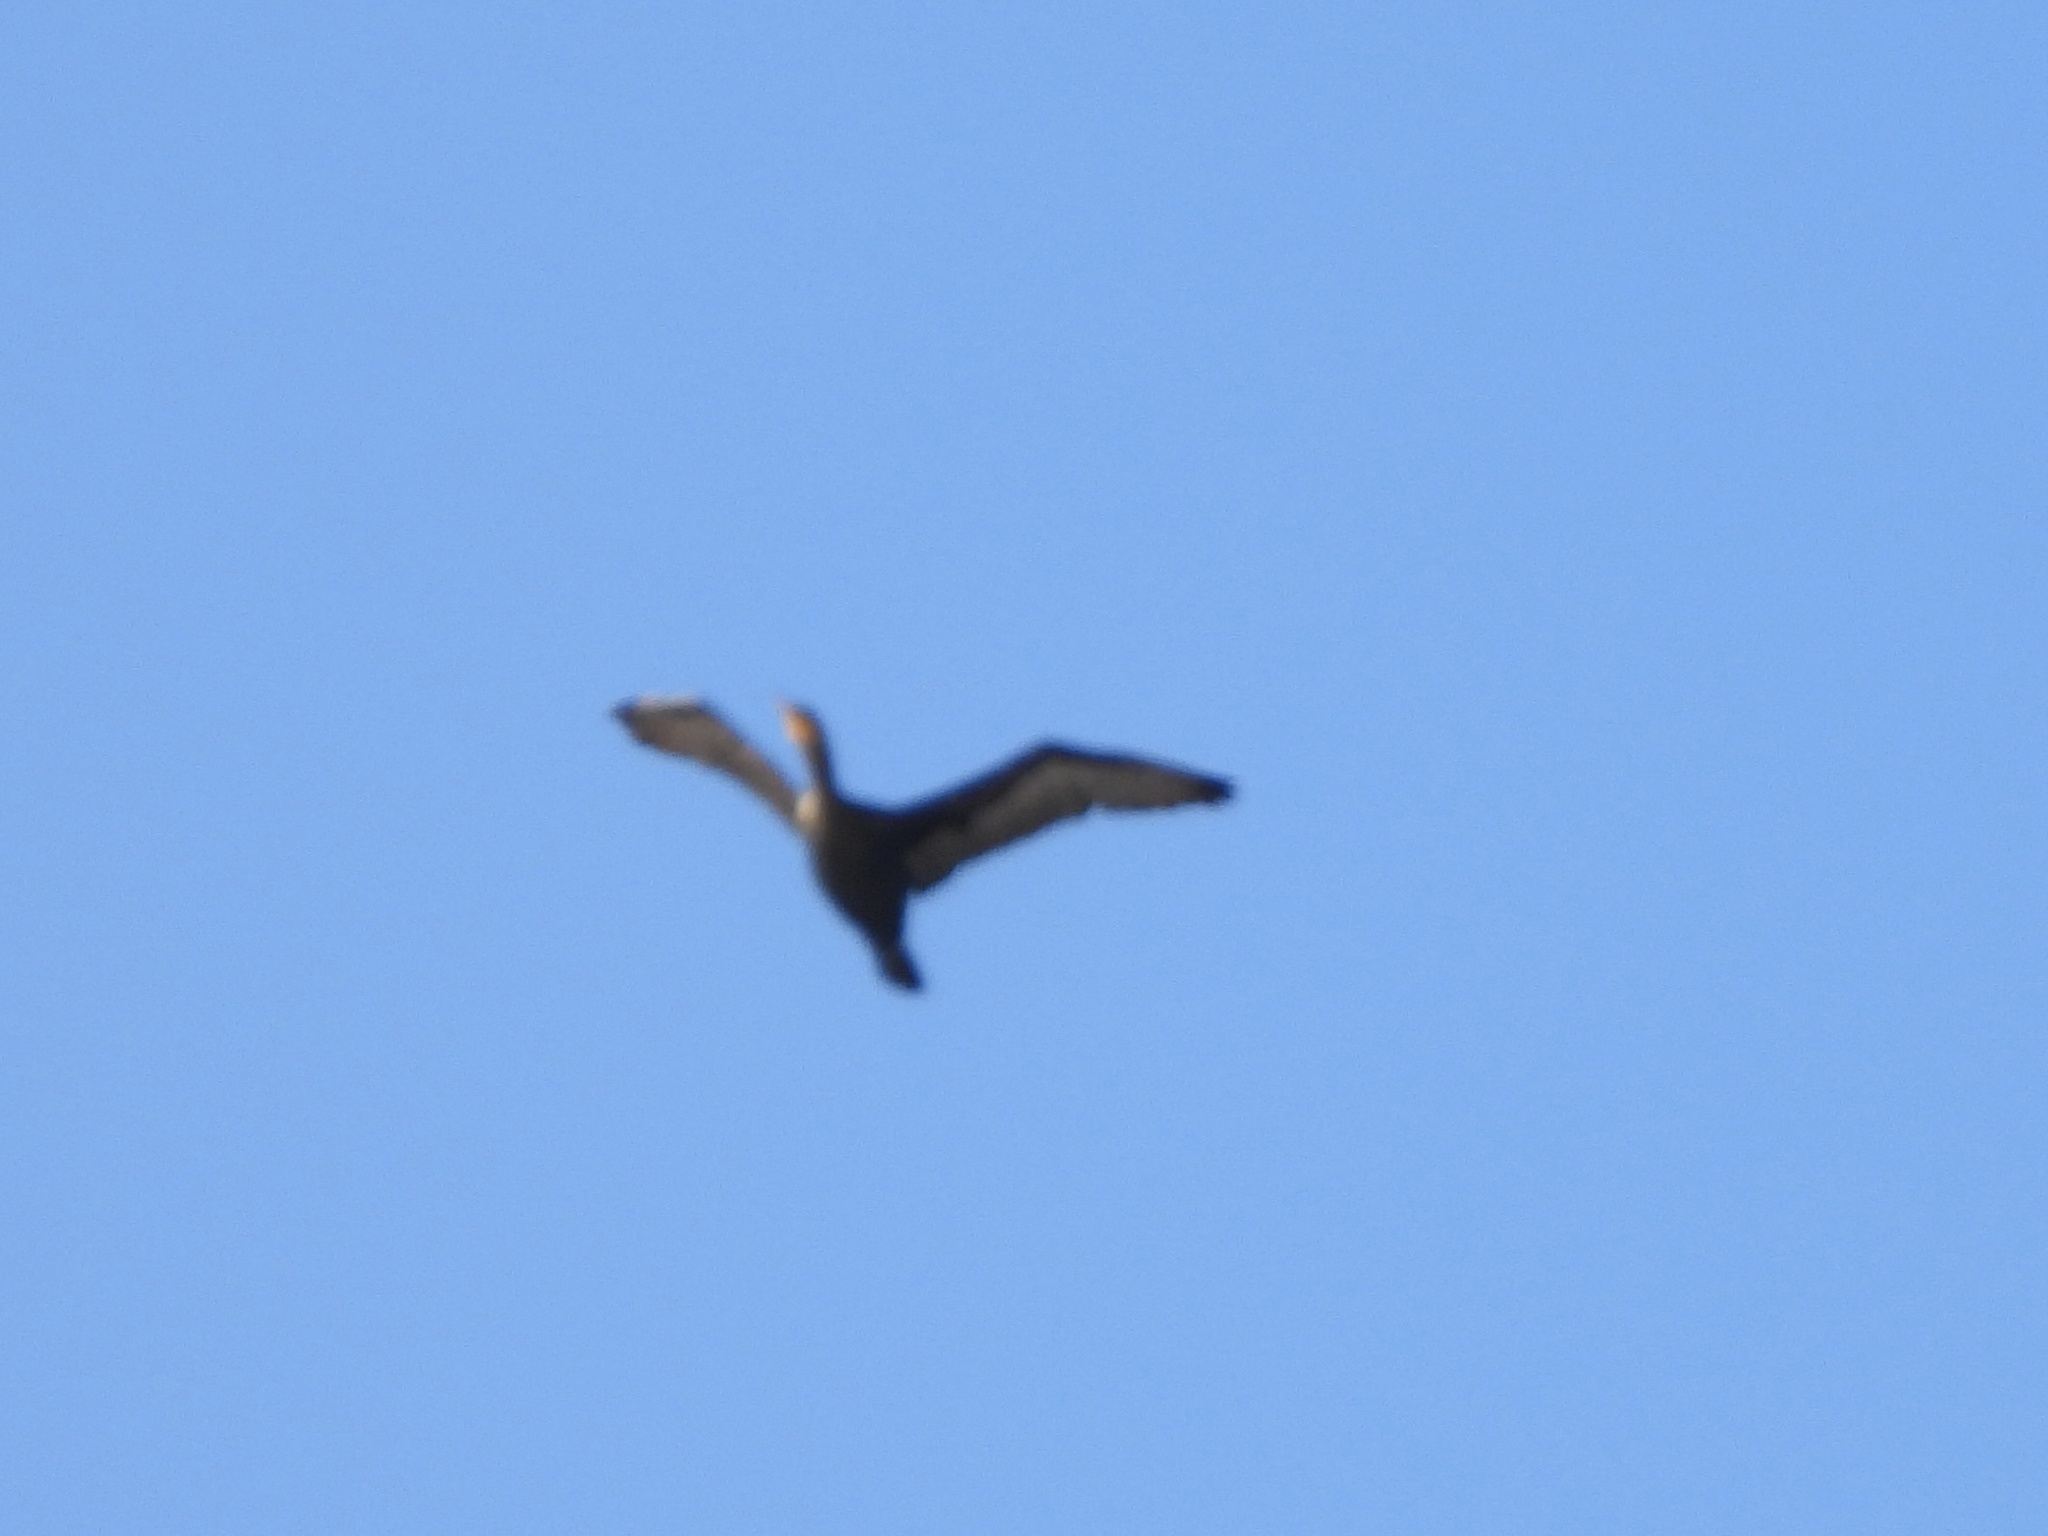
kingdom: Animalia
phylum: Chordata
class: Aves
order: Suliformes
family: Phalacrocoracidae
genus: Phalacrocorax
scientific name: Phalacrocorax auritus
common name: Double-crested cormorant
